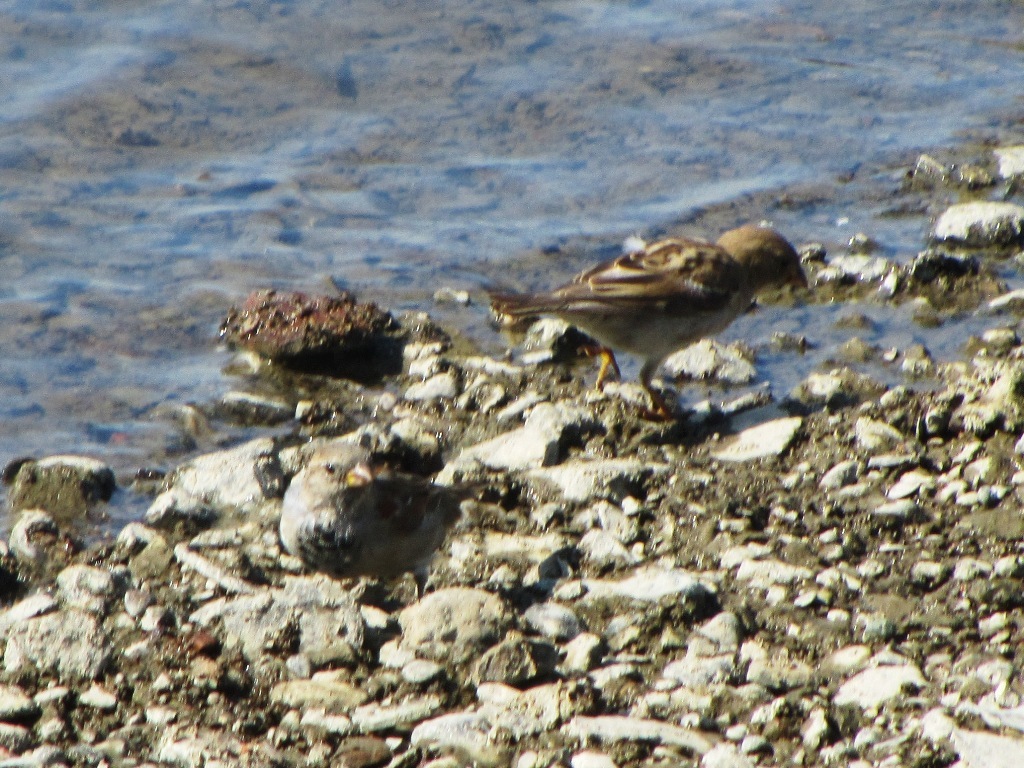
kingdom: Animalia
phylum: Chordata
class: Aves
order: Passeriformes
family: Passeridae
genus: Passer
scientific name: Passer domesticus
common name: House sparrow
